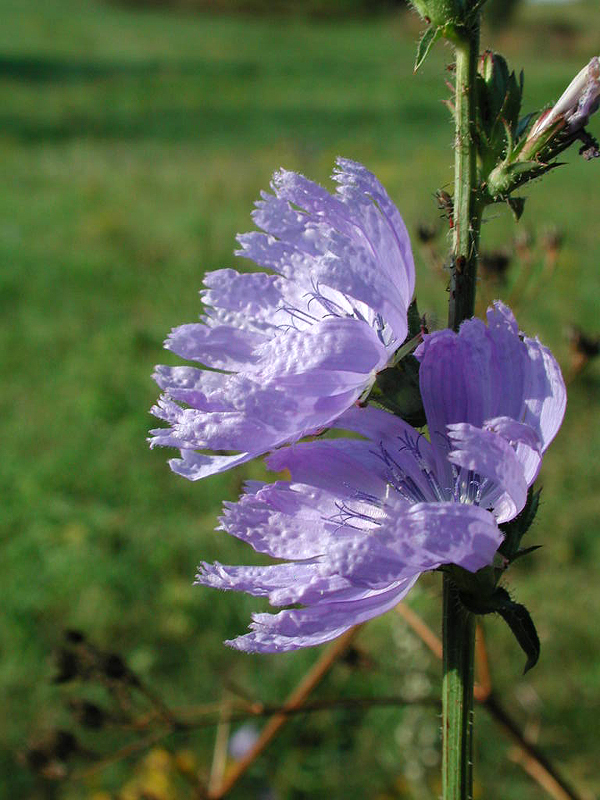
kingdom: Plantae
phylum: Tracheophyta
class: Magnoliopsida
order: Asterales
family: Asteraceae
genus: Cichorium
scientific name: Cichorium intybus
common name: Chicory
